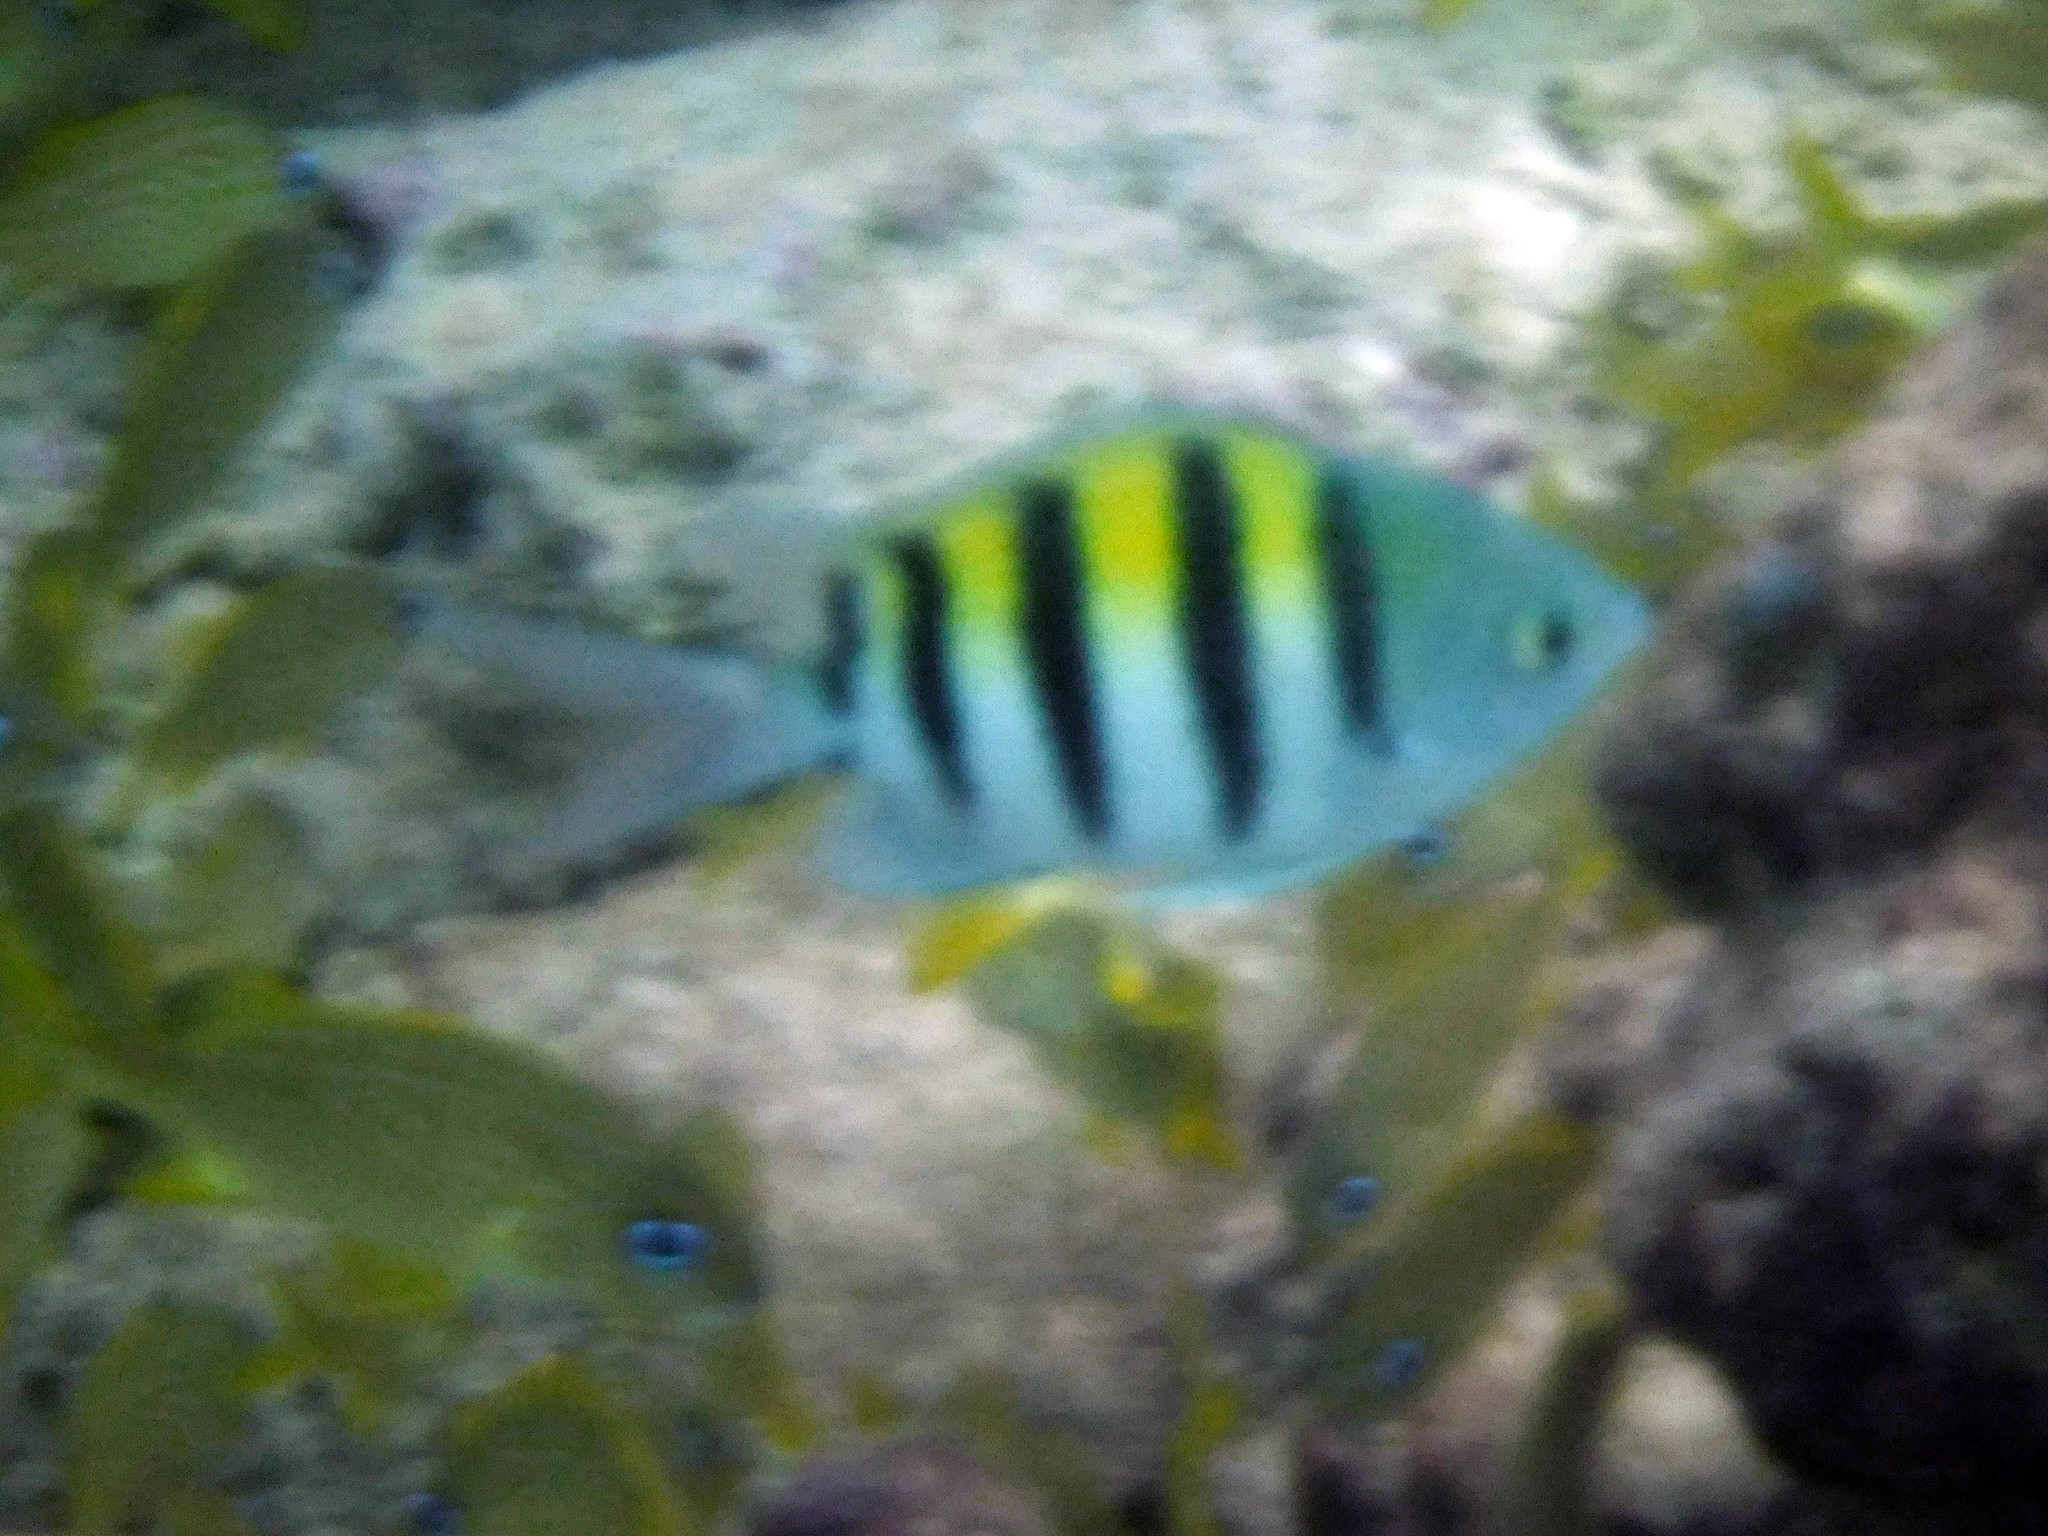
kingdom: Animalia
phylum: Chordata
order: Perciformes
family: Pomacentridae
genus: Abudefduf
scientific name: Abudefduf saxatilis
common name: Sergeant major
